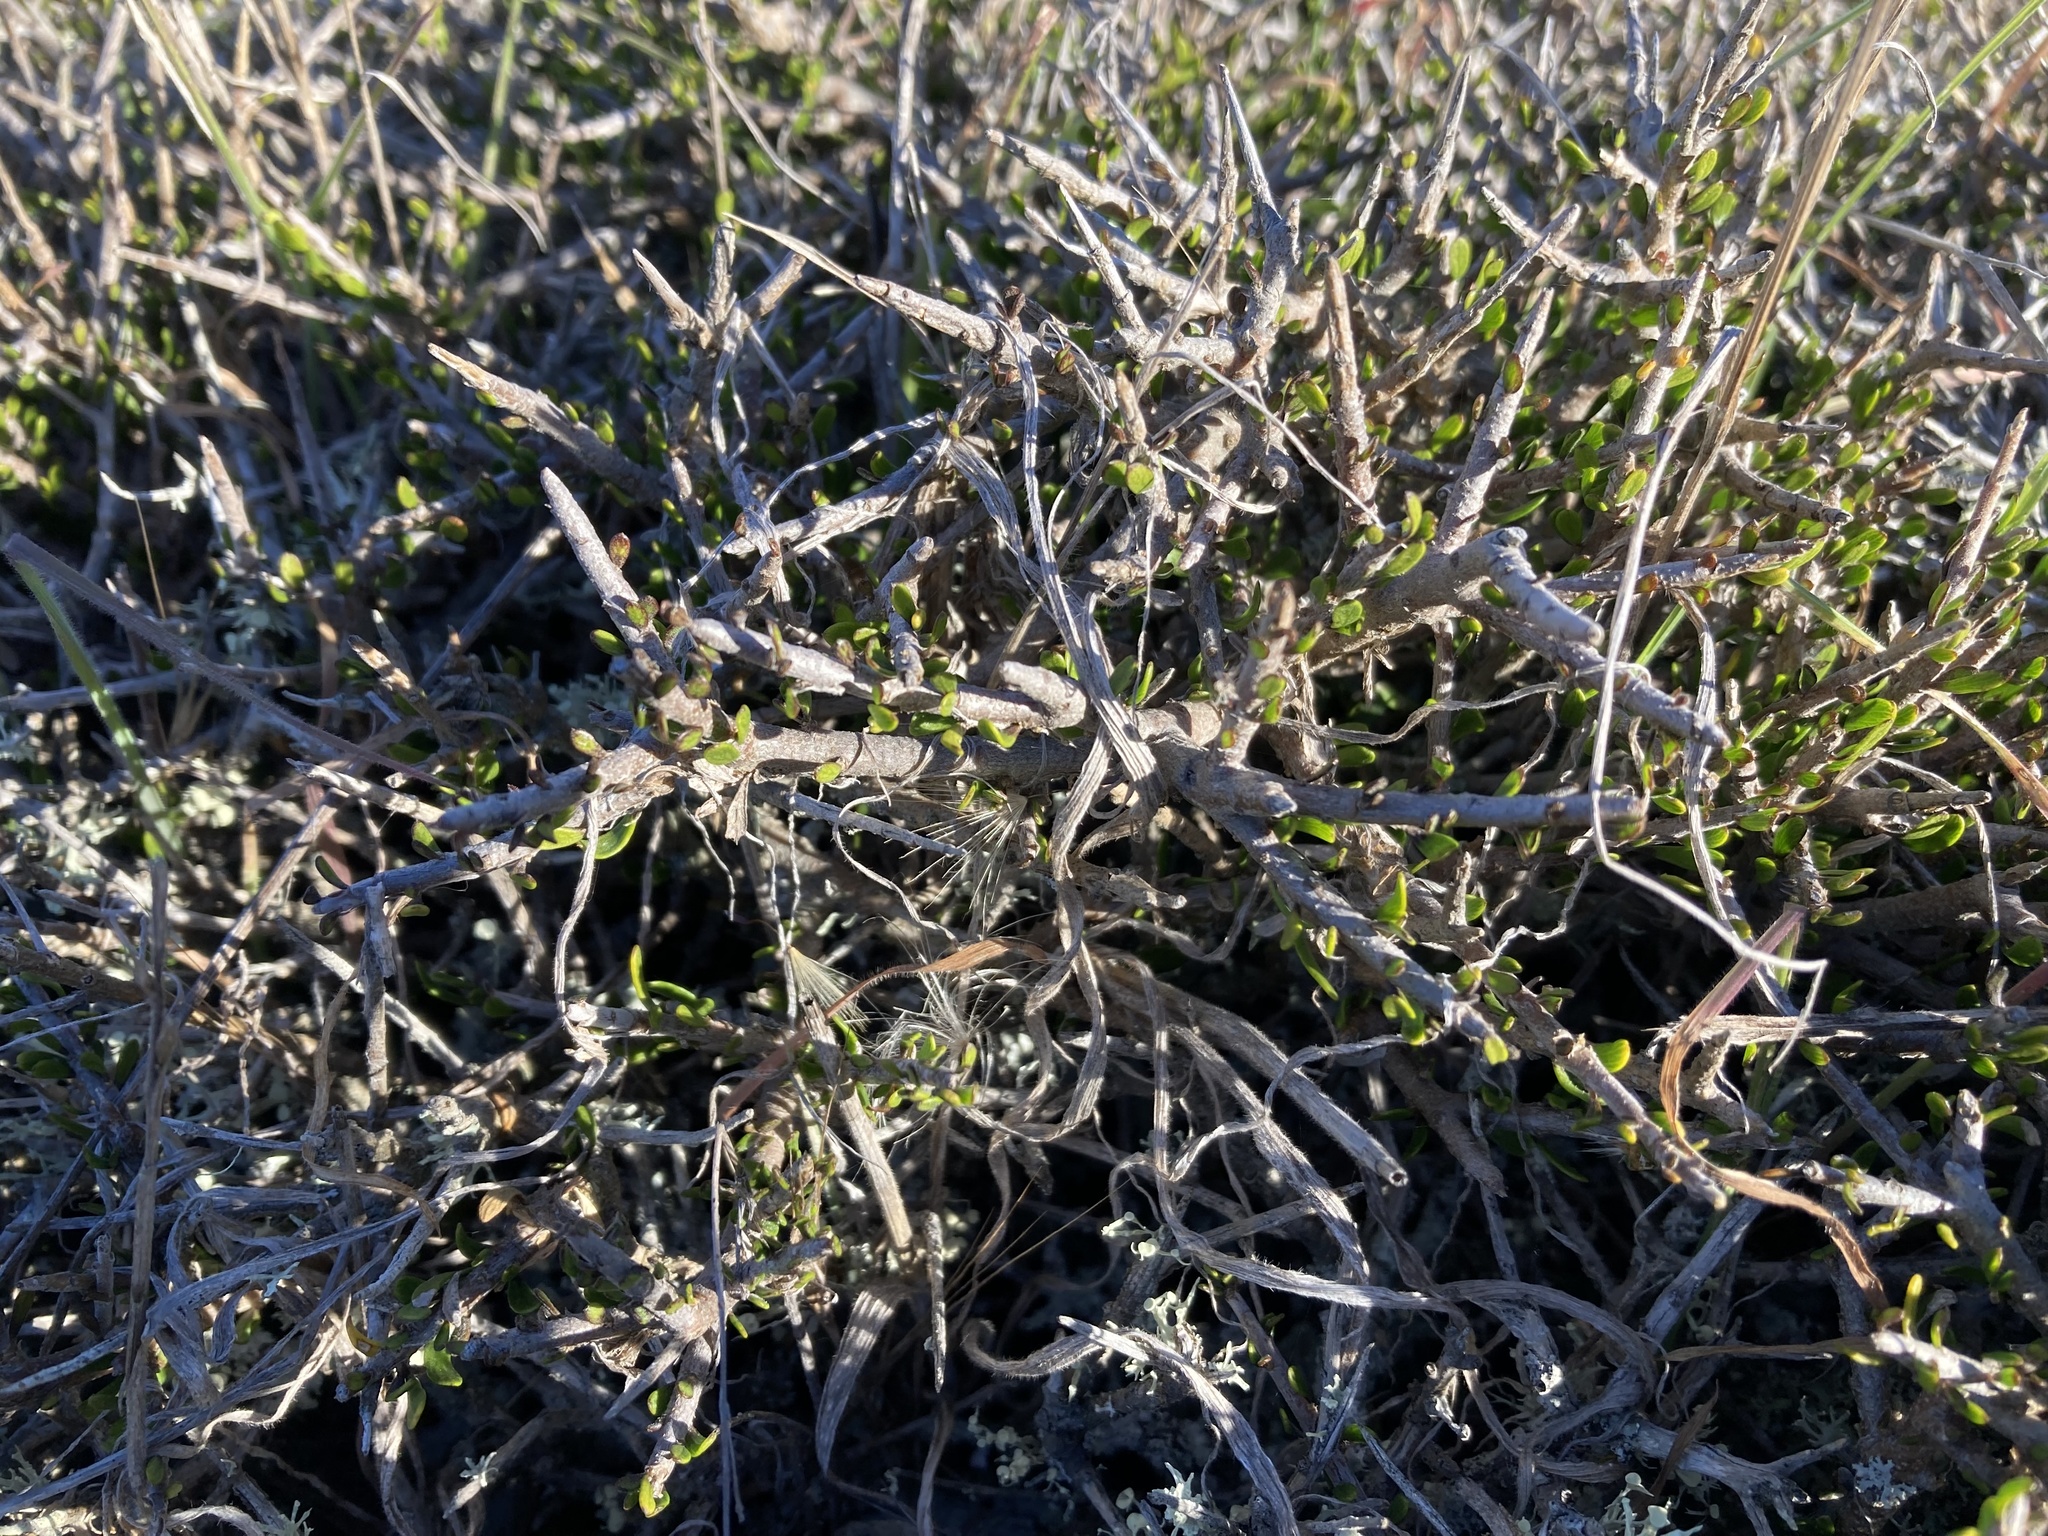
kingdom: Plantae
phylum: Tracheophyta
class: Magnoliopsida
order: Malpighiales
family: Violaceae
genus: Melicytus
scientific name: Melicytus alpinus
